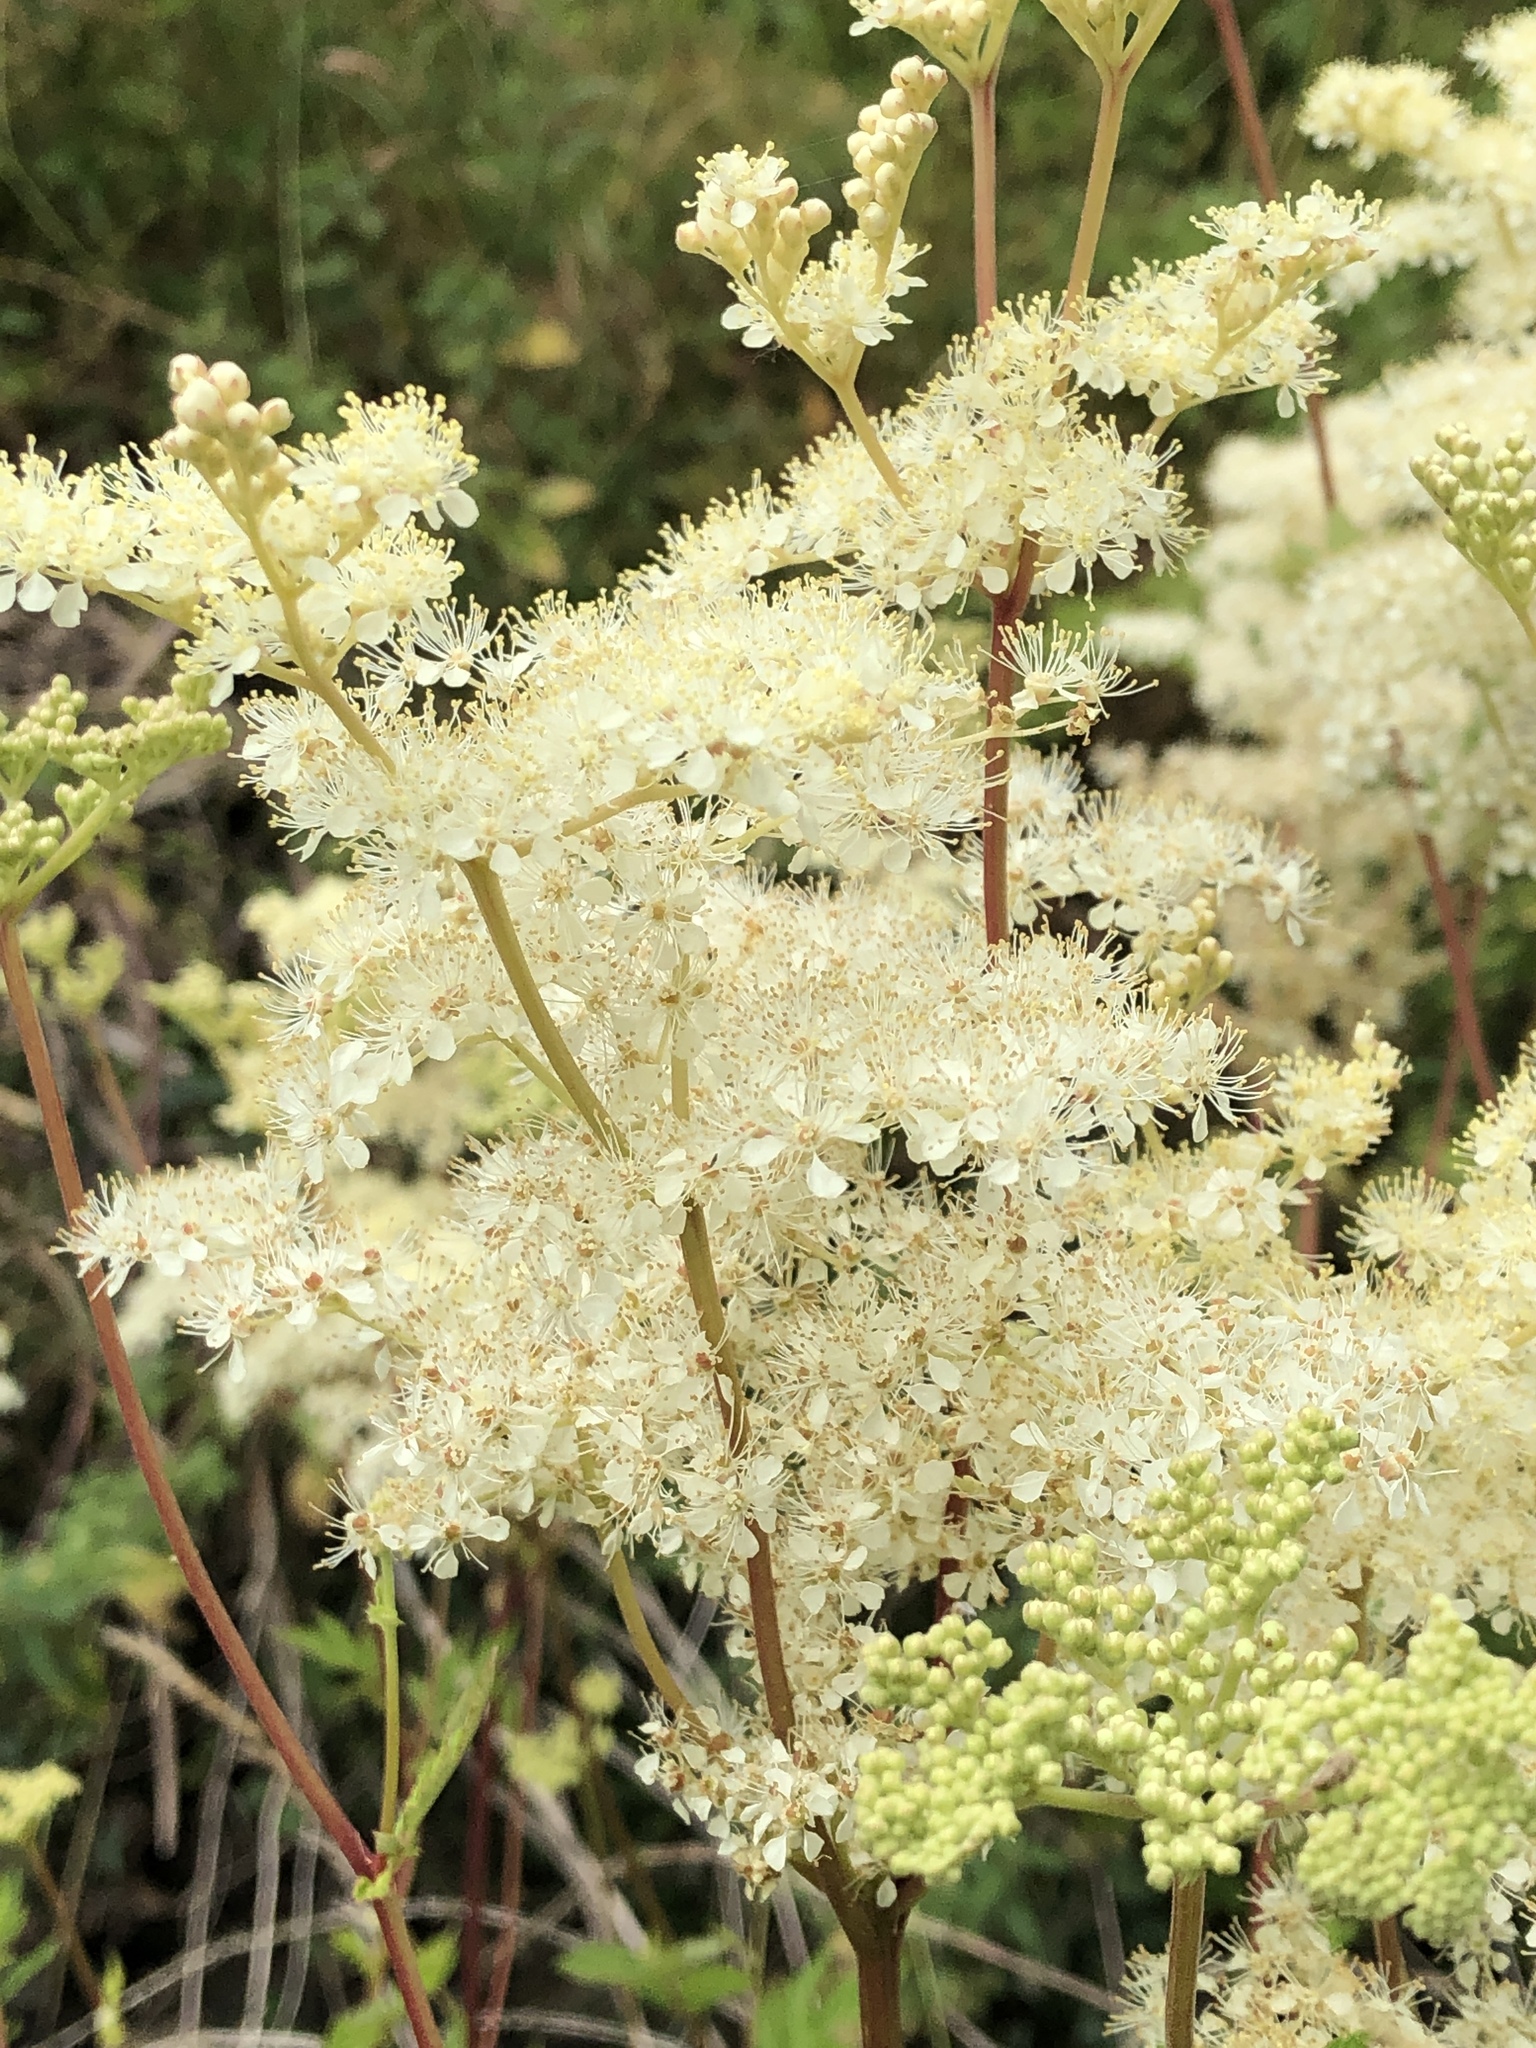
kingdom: Plantae
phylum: Tracheophyta
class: Magnoliopsida
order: Rosales
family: Rosaceae
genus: Filipendula
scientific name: Filipendula ulmaria
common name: Meadowsweet
